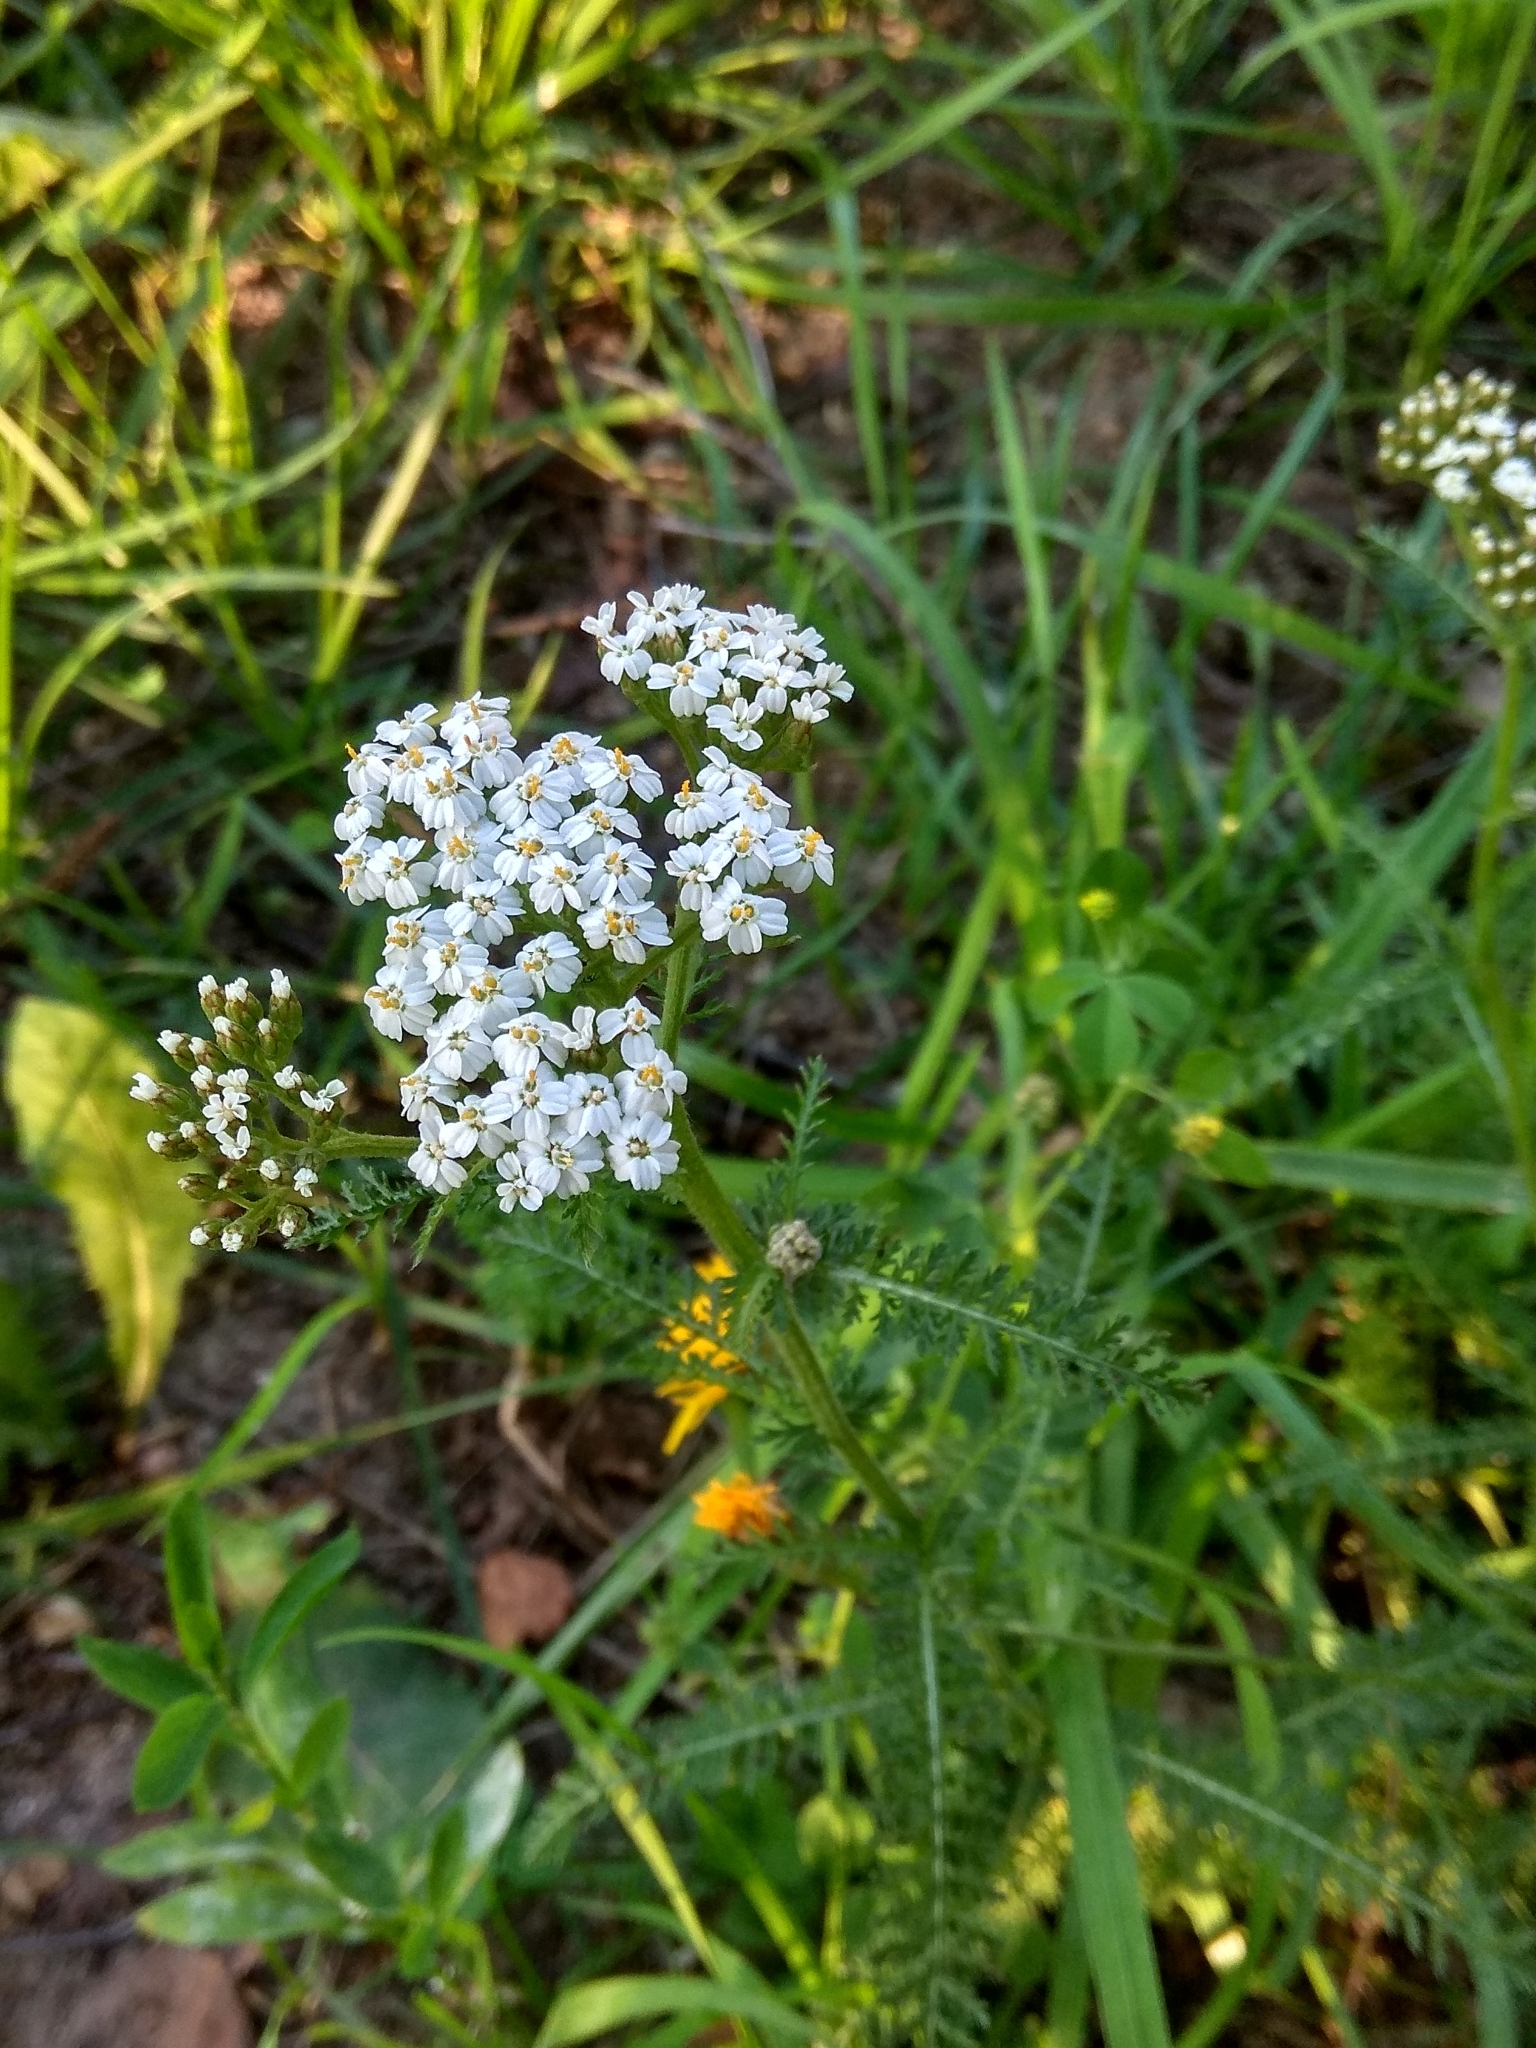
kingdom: Plantae
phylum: Tracheophyta
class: Magnoliopsida
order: Asterales
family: Asteraceae
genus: Achillea
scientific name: Achillea millefolium
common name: Yarrow
